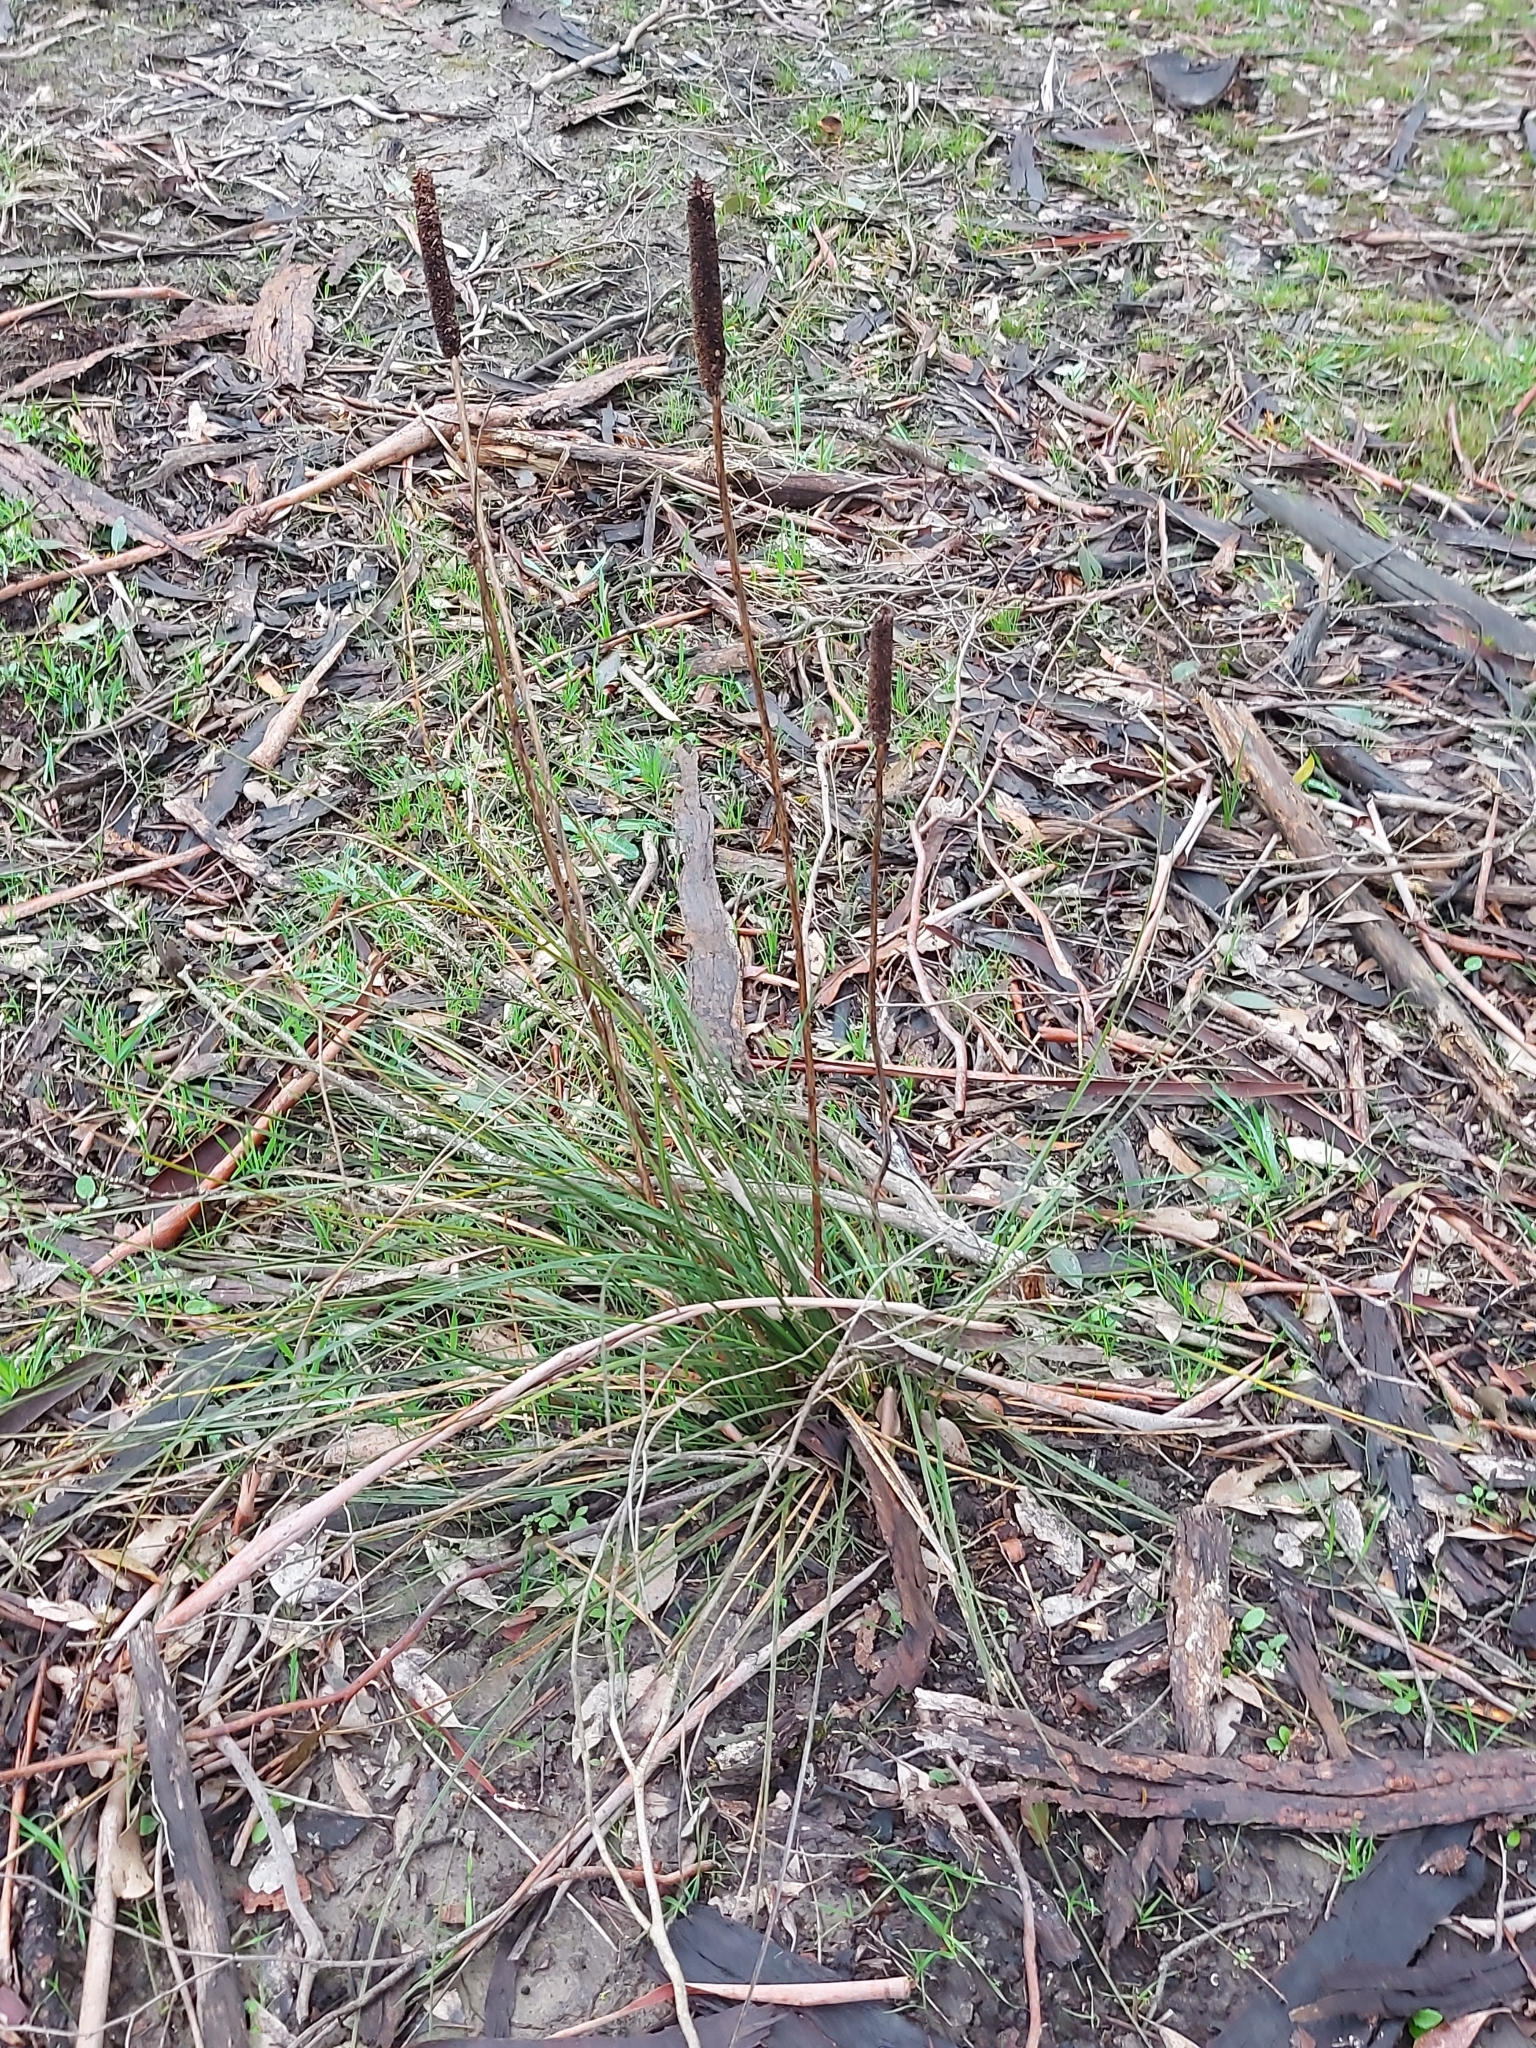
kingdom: Plantae
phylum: Tracheophyta
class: Liliopsida
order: Asparagales
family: Asphodelaceae
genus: Xanthorrhoea
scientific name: Xanthorrhoea minor
